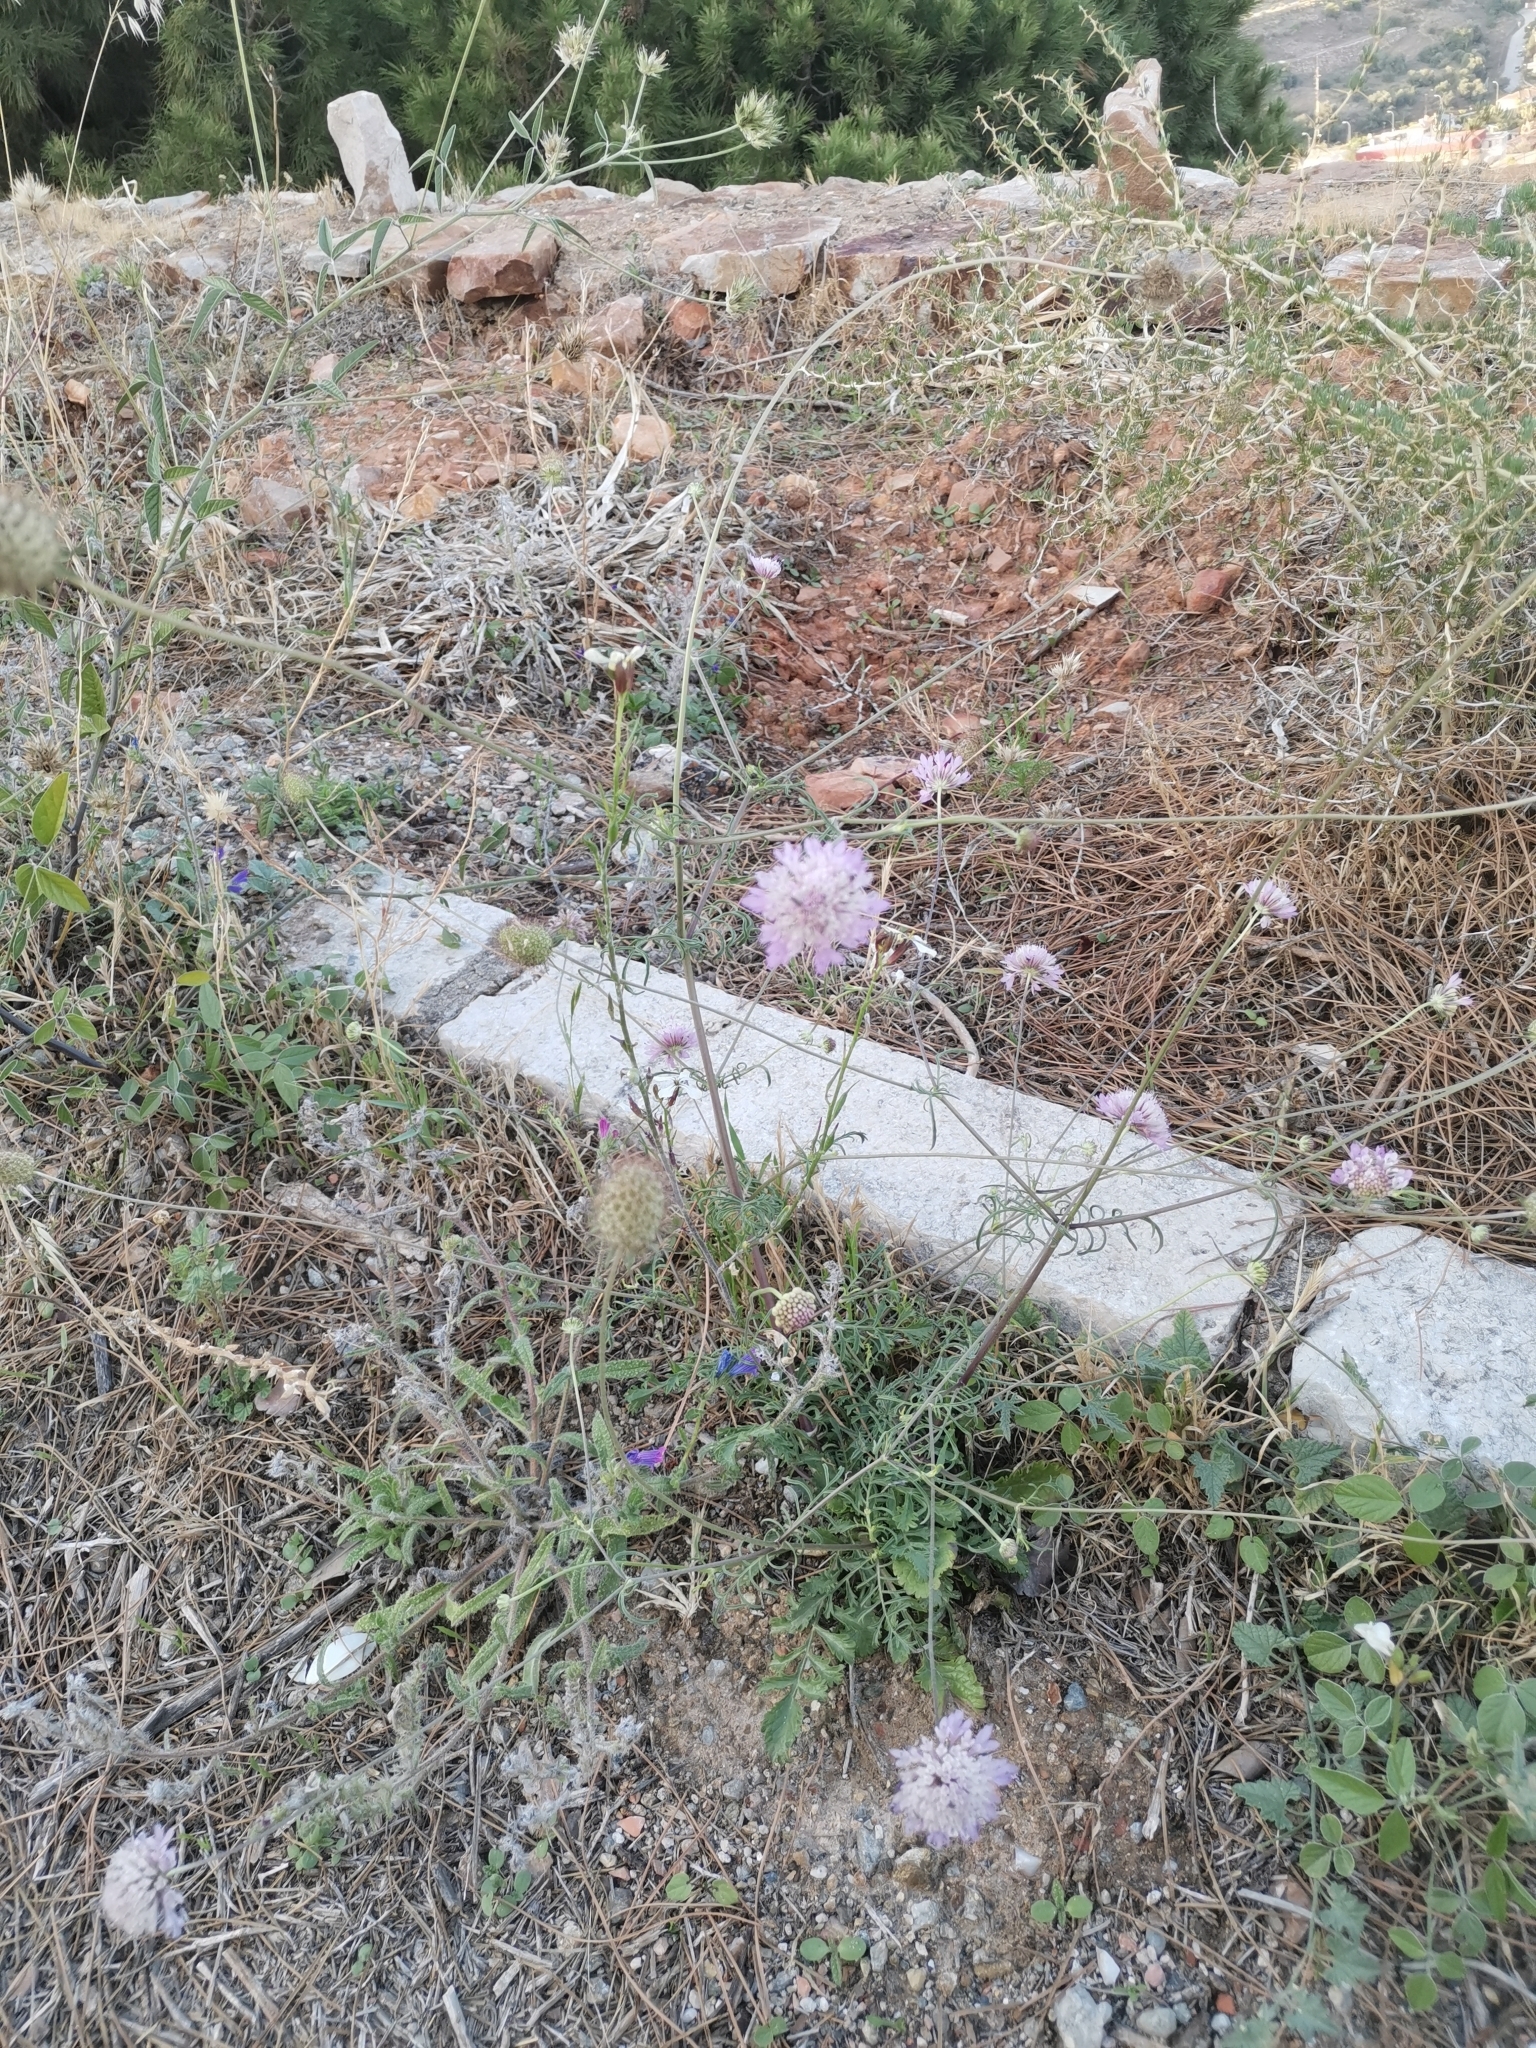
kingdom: Plantae
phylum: Tracheophyta
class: Magnoliopsida
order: Dipsacales
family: Caprifoliaceae
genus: Sixalix
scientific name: Sixalix atropurpurea
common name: Sweet scabious
